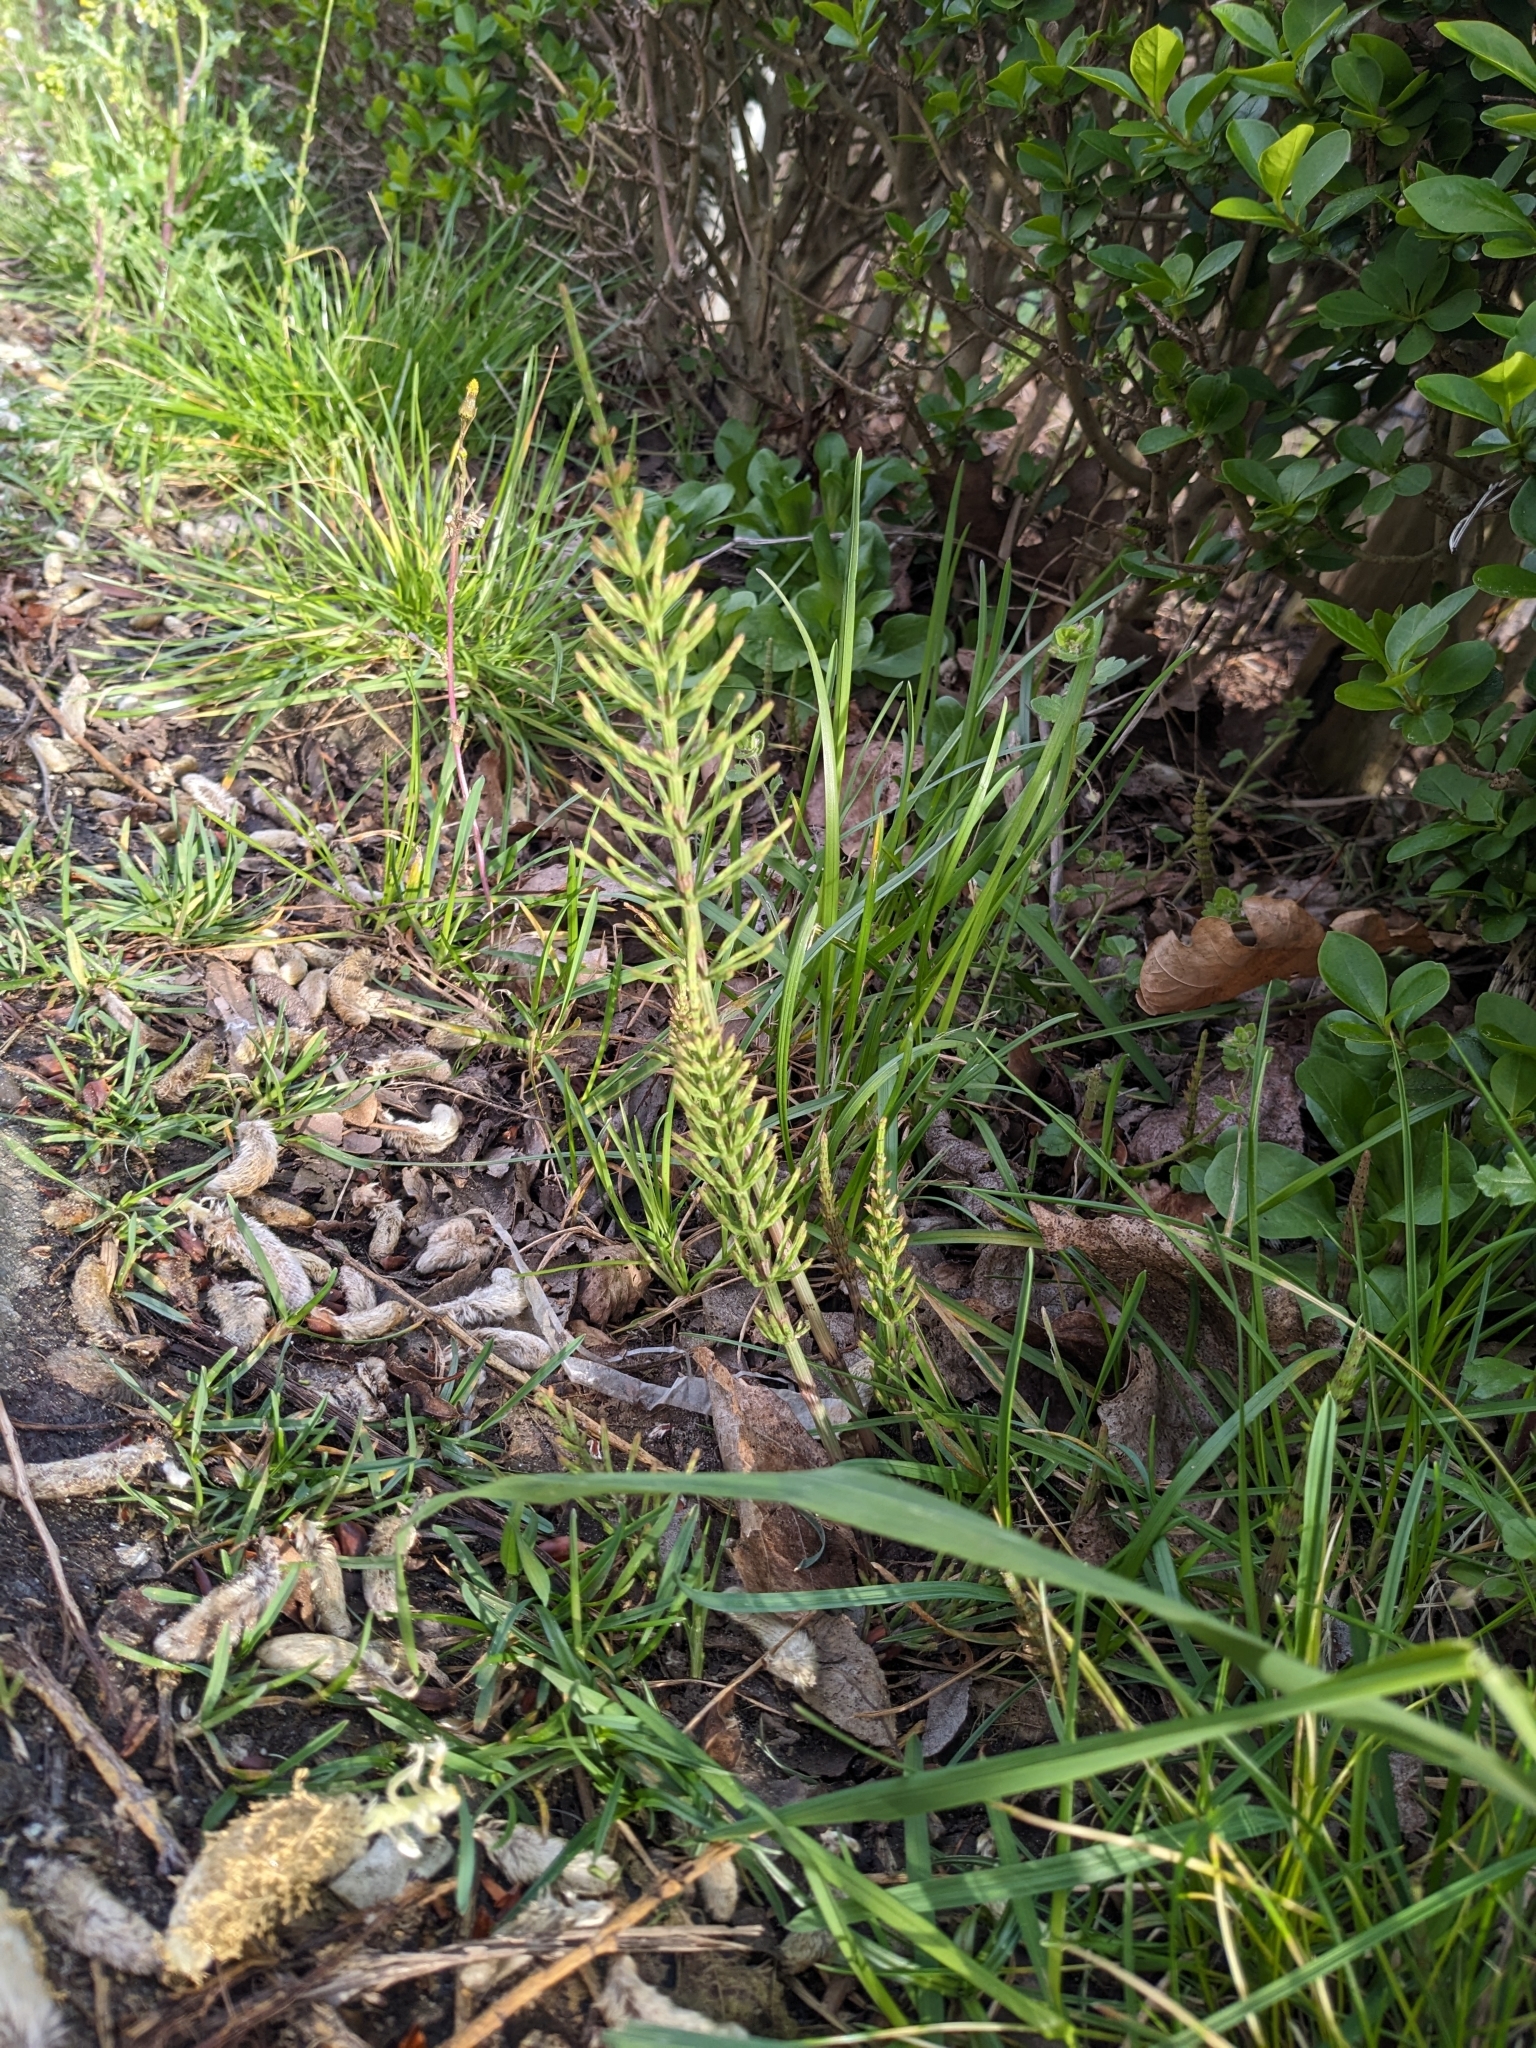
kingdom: Plantae
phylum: Tracheophyta
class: Polypodiopsida
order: Equisetales
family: Equisetaceae
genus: Equisetum
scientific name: Equisetum arvense
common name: Field horsetail
